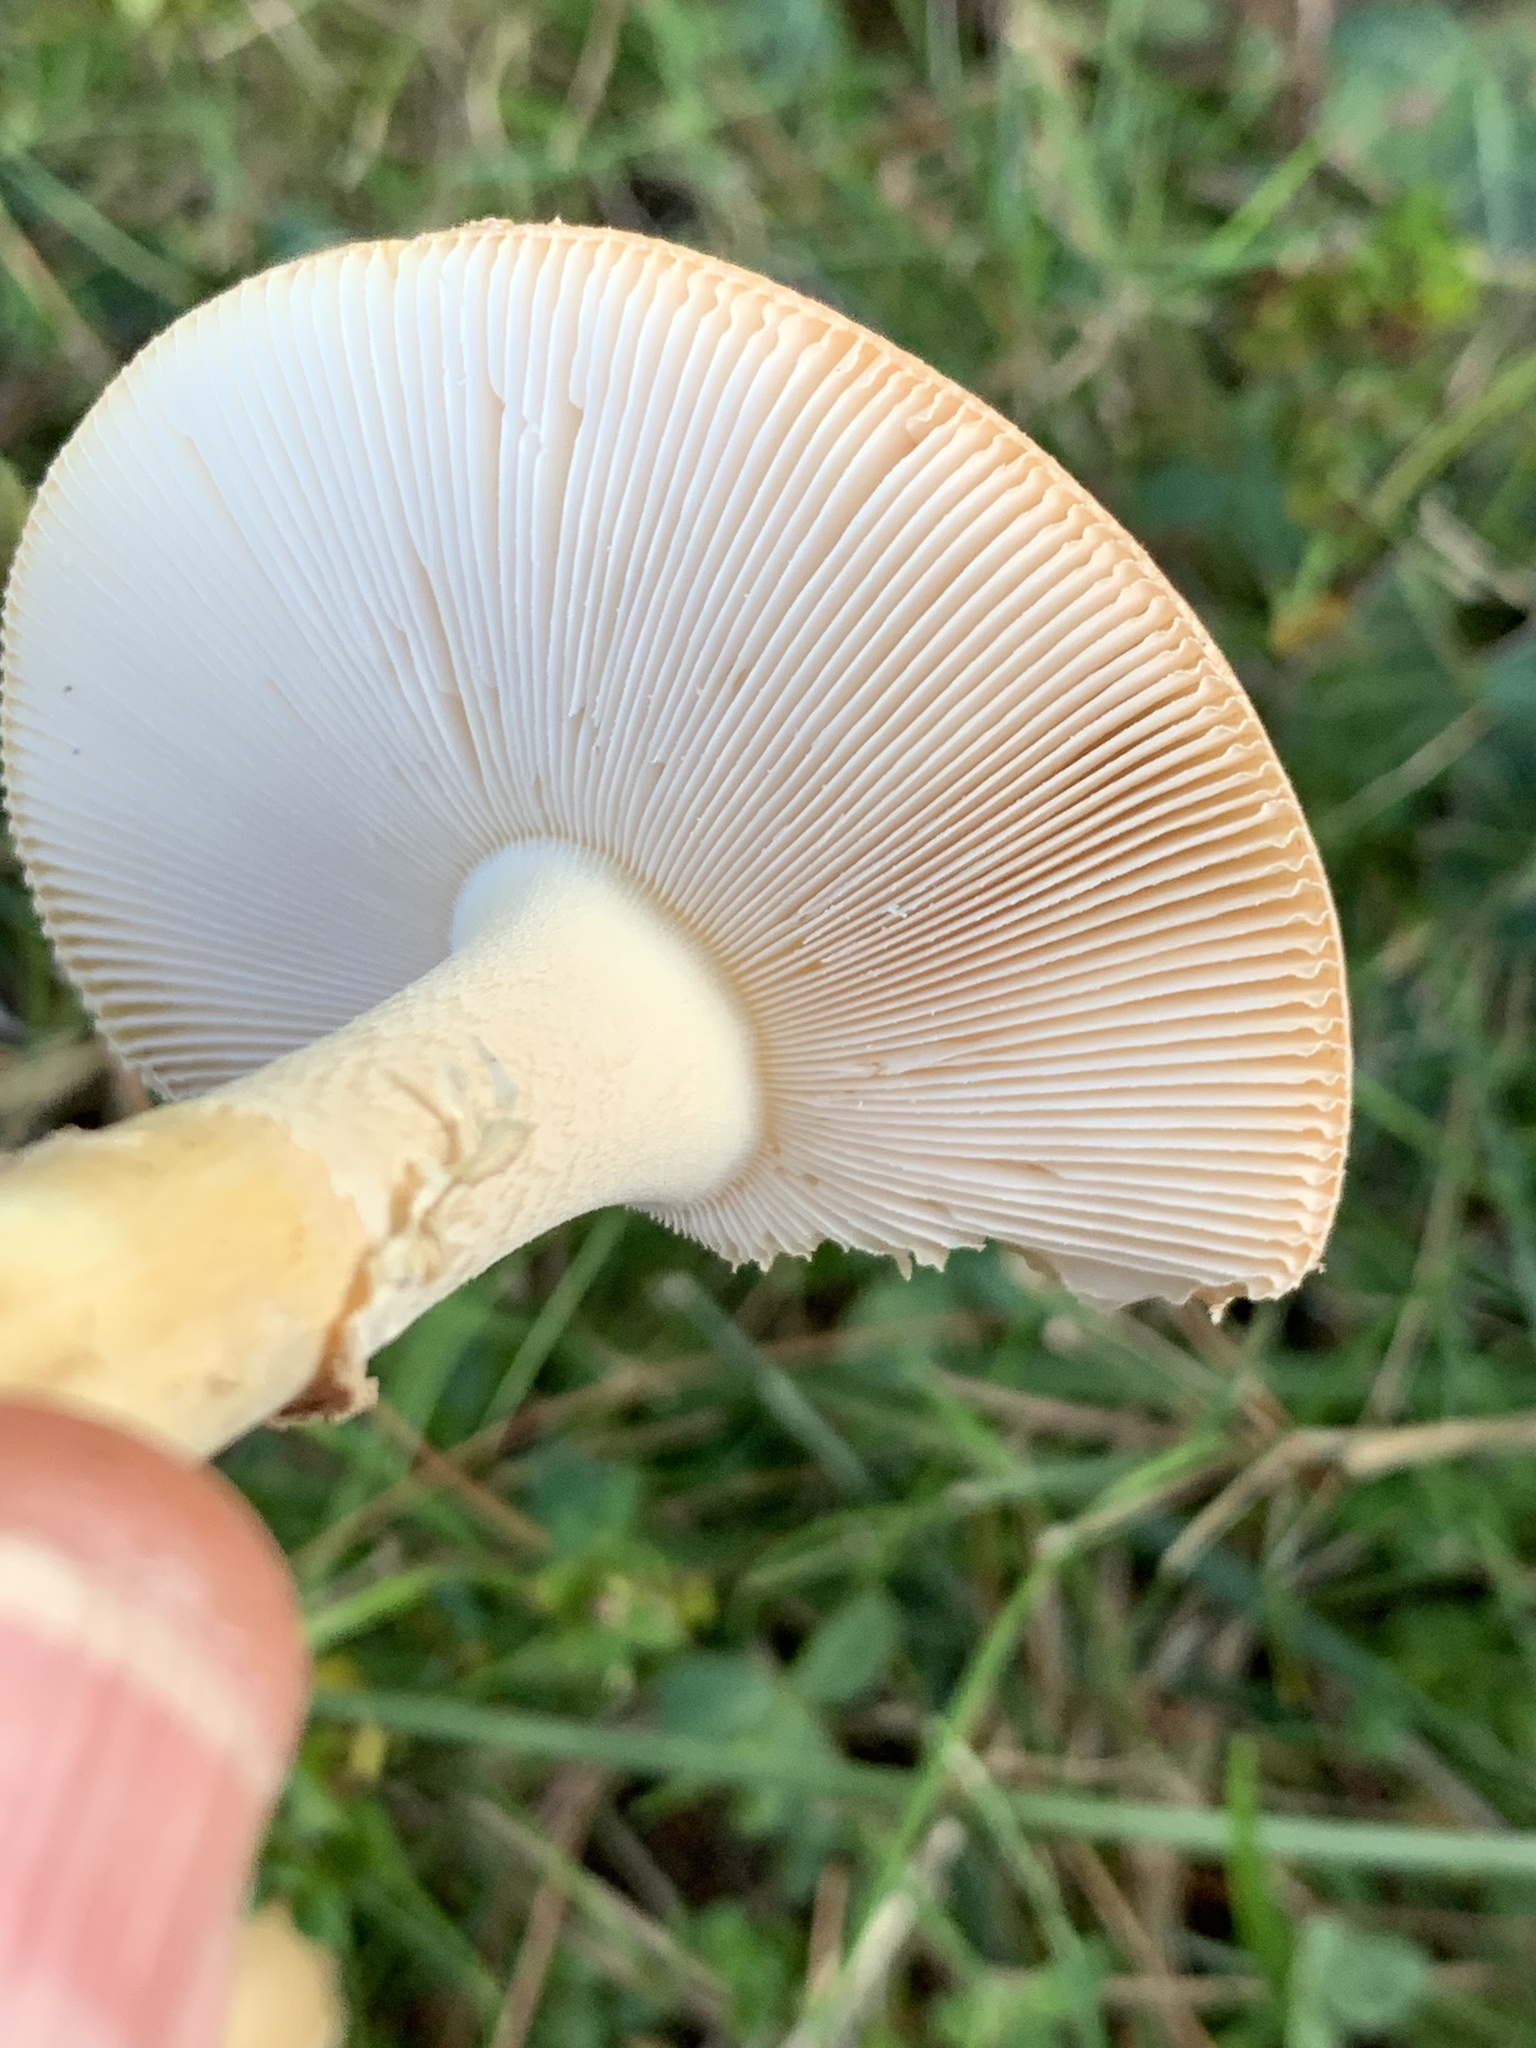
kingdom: Fungi
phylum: Basidiomycota
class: Agaricomycetes
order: Agaricales
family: Amanitaceae
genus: Amanita
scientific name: Amanita crenulata
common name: Poison champagne amanita
